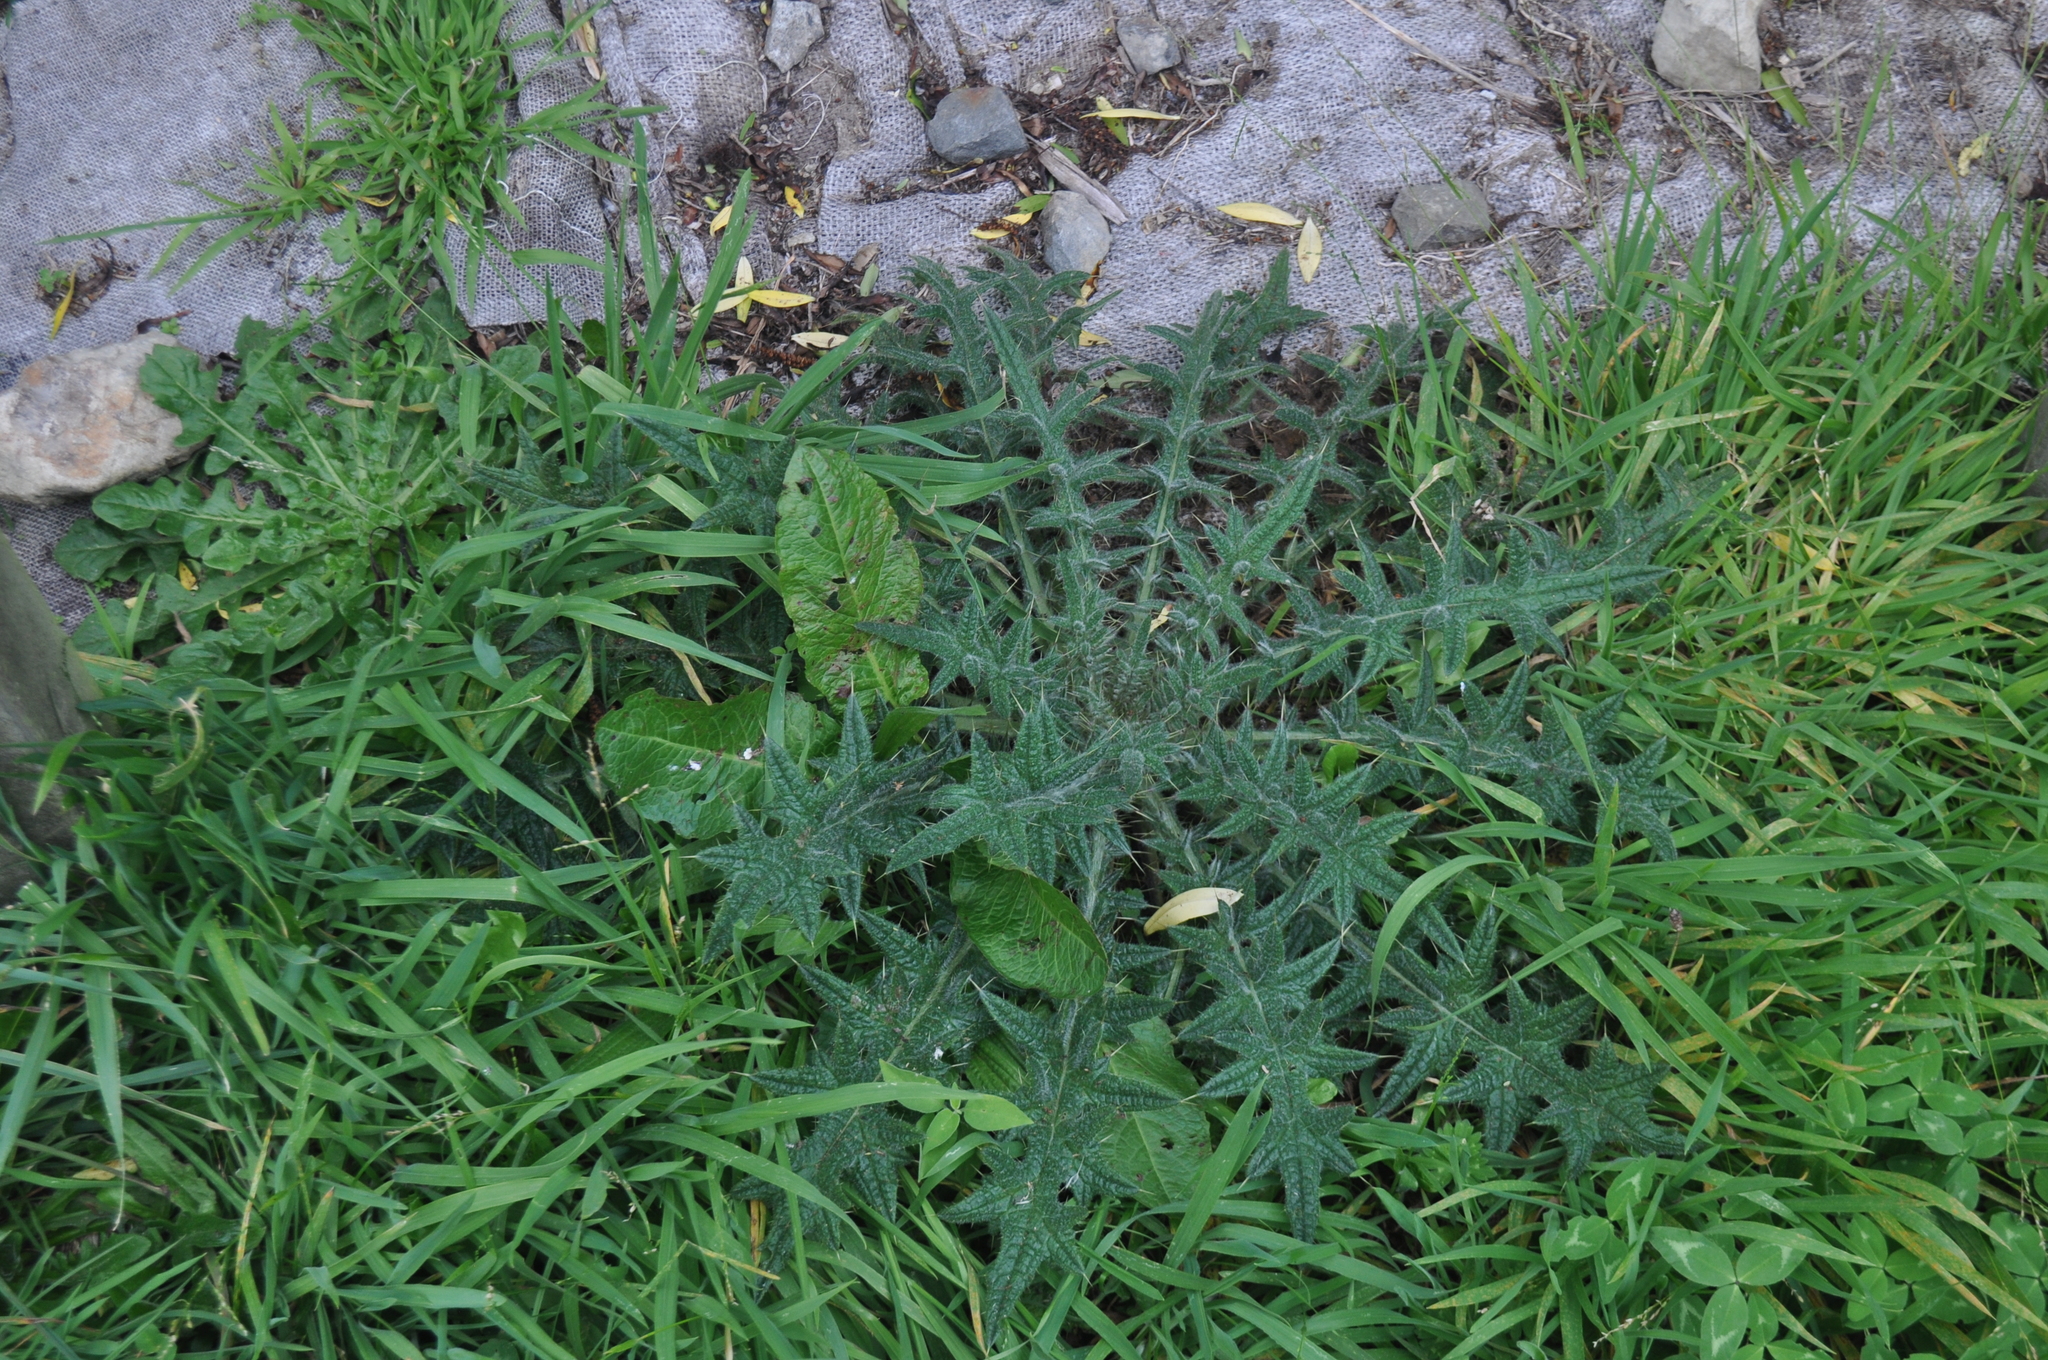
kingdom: Plantae
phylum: Tracheophyta
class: Magnoliopsida
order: Asterales
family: Asteraceae
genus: Cirsium
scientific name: Cirsium vulgare
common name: Bull thistle
